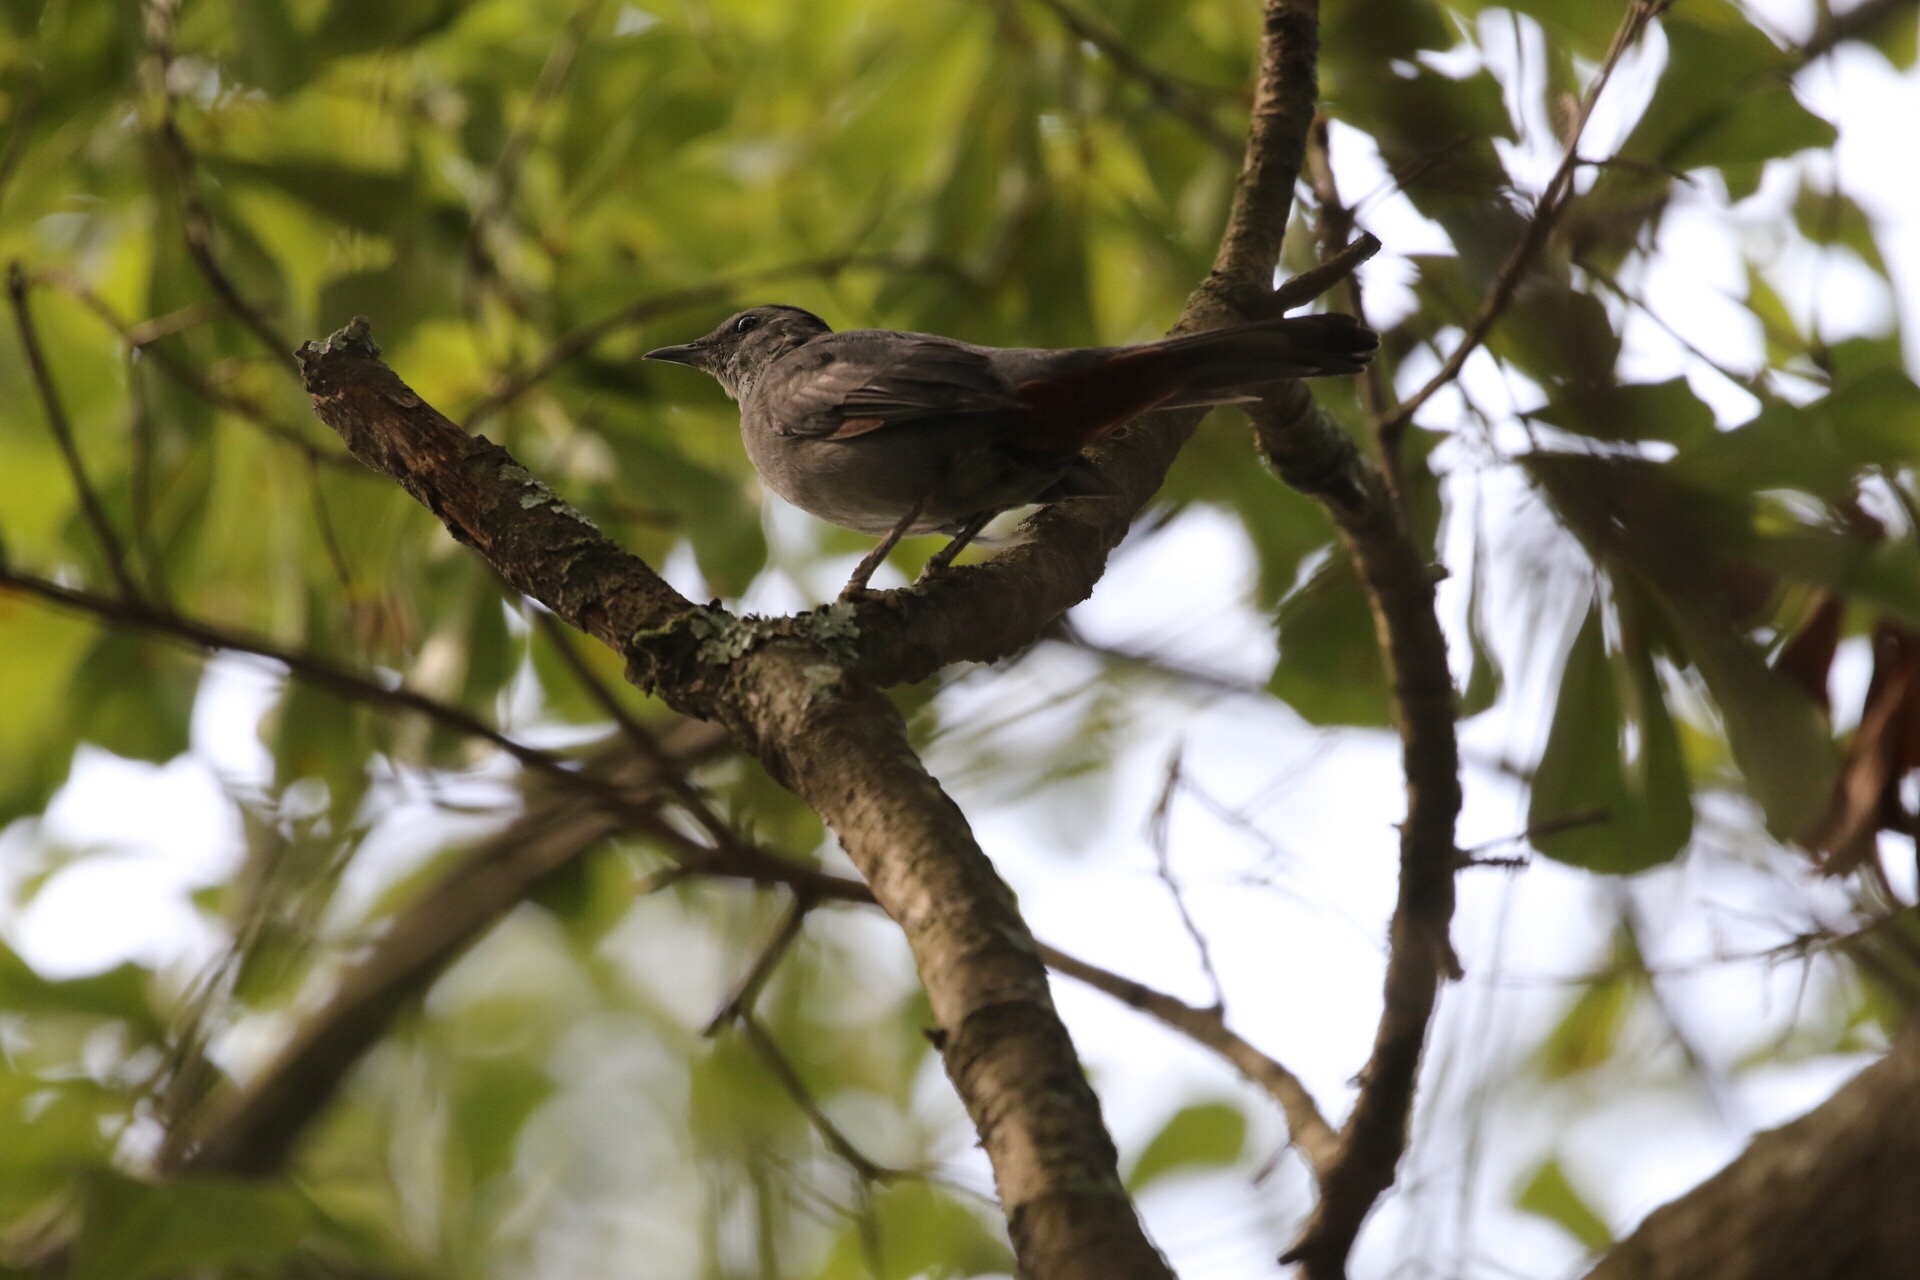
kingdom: Animalia
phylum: Chordata
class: Aves
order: Passeriformes
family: Mimidae
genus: Dumetella
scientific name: Dumetella carolinensis
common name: Gray catbird
